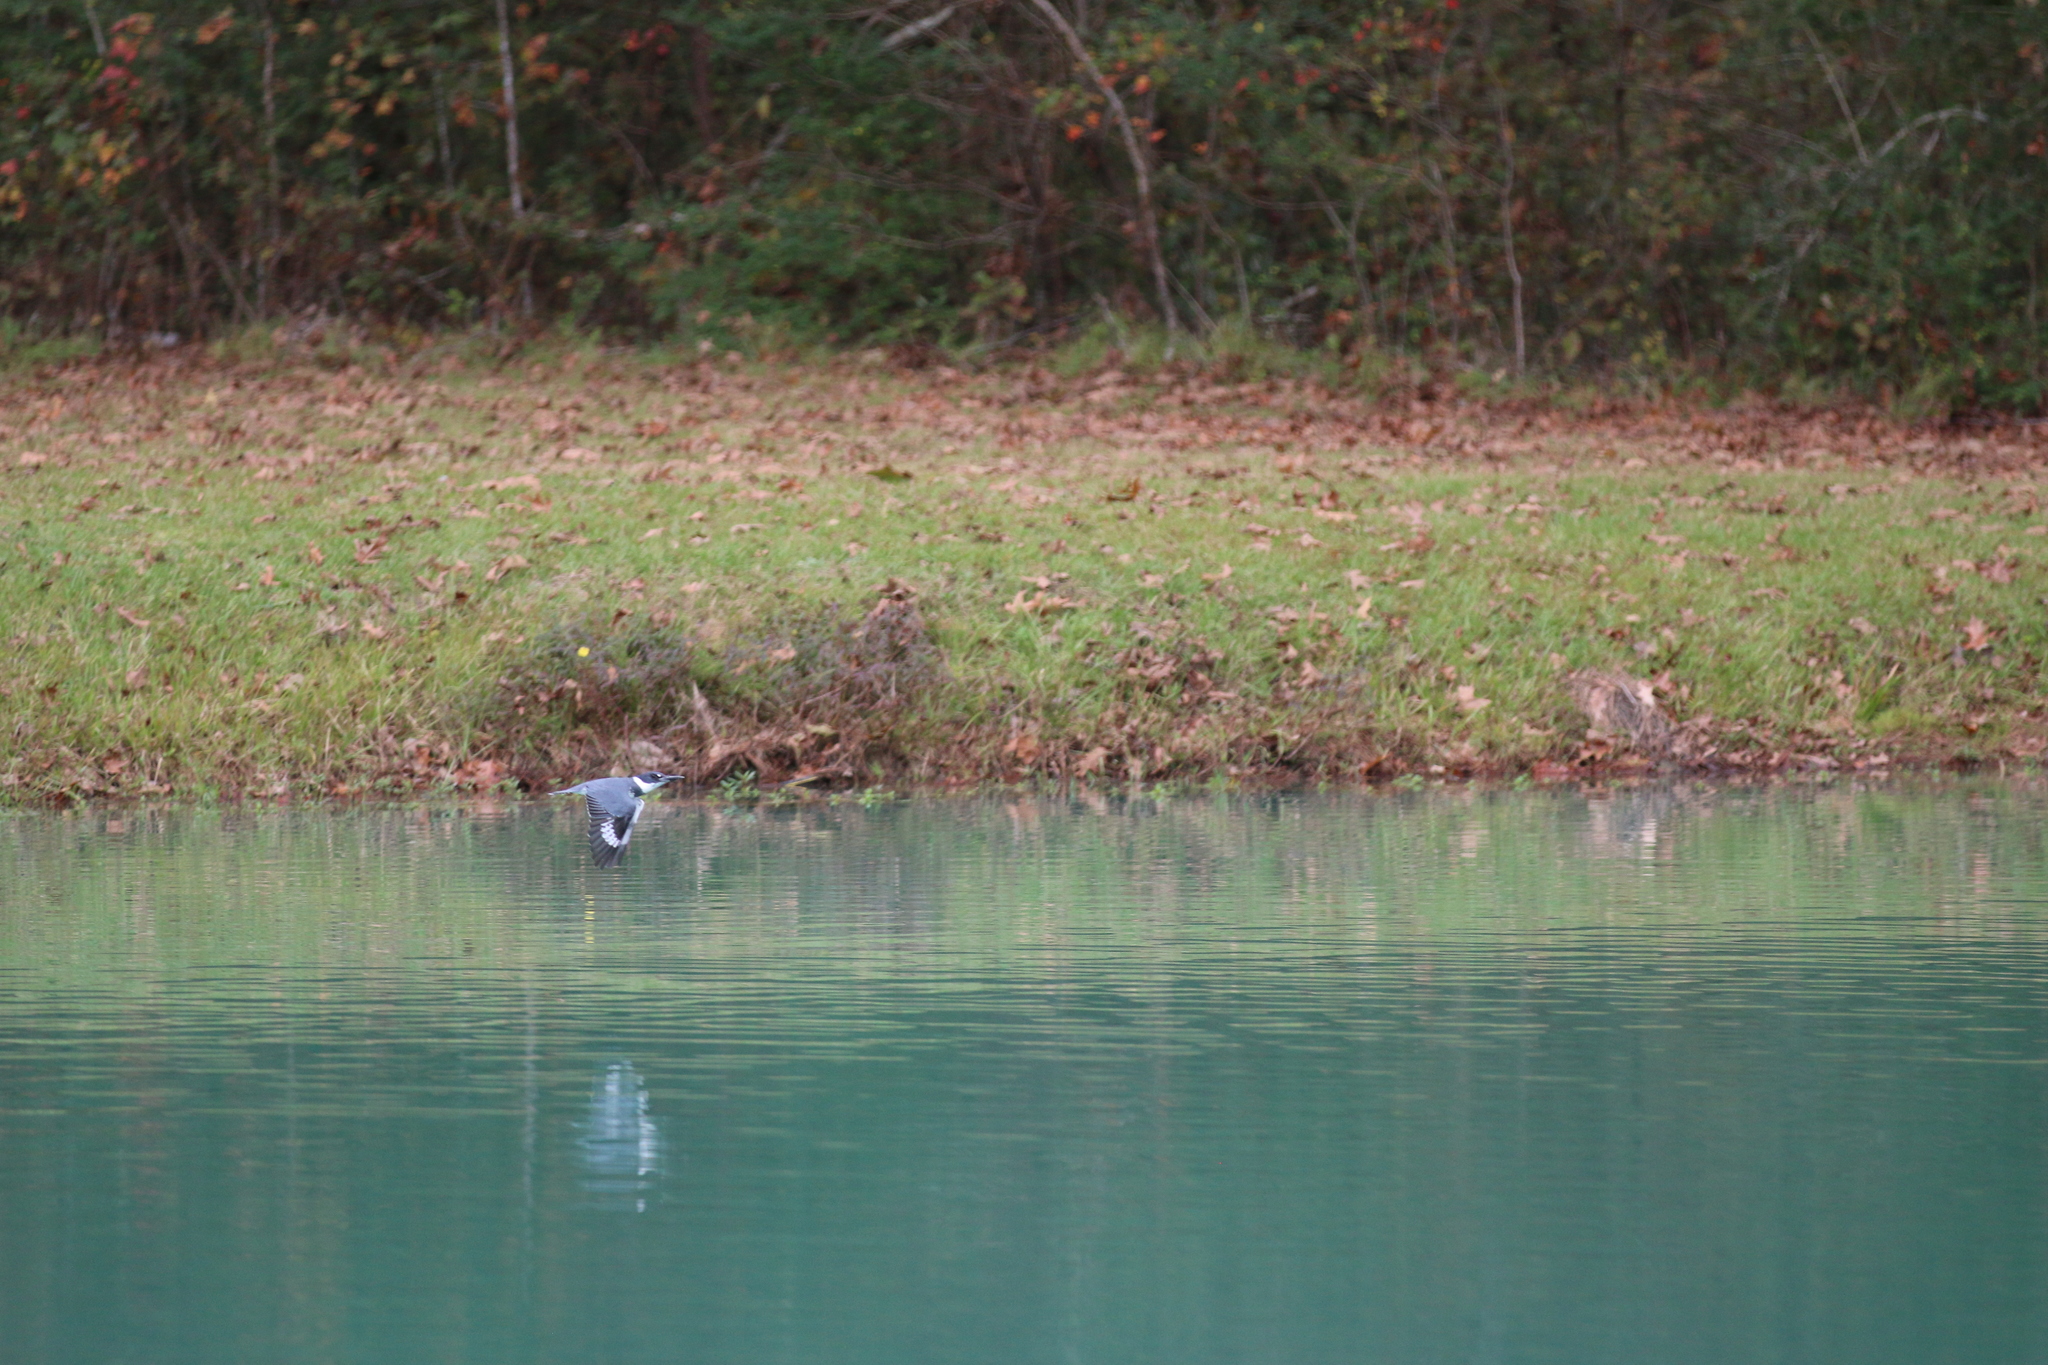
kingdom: Animalia
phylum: Chordata
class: Aves
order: Coraciiformes
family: Alcedinidae
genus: Megaceryle
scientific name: Megaceryle alcyon
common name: Belted kingfisher
